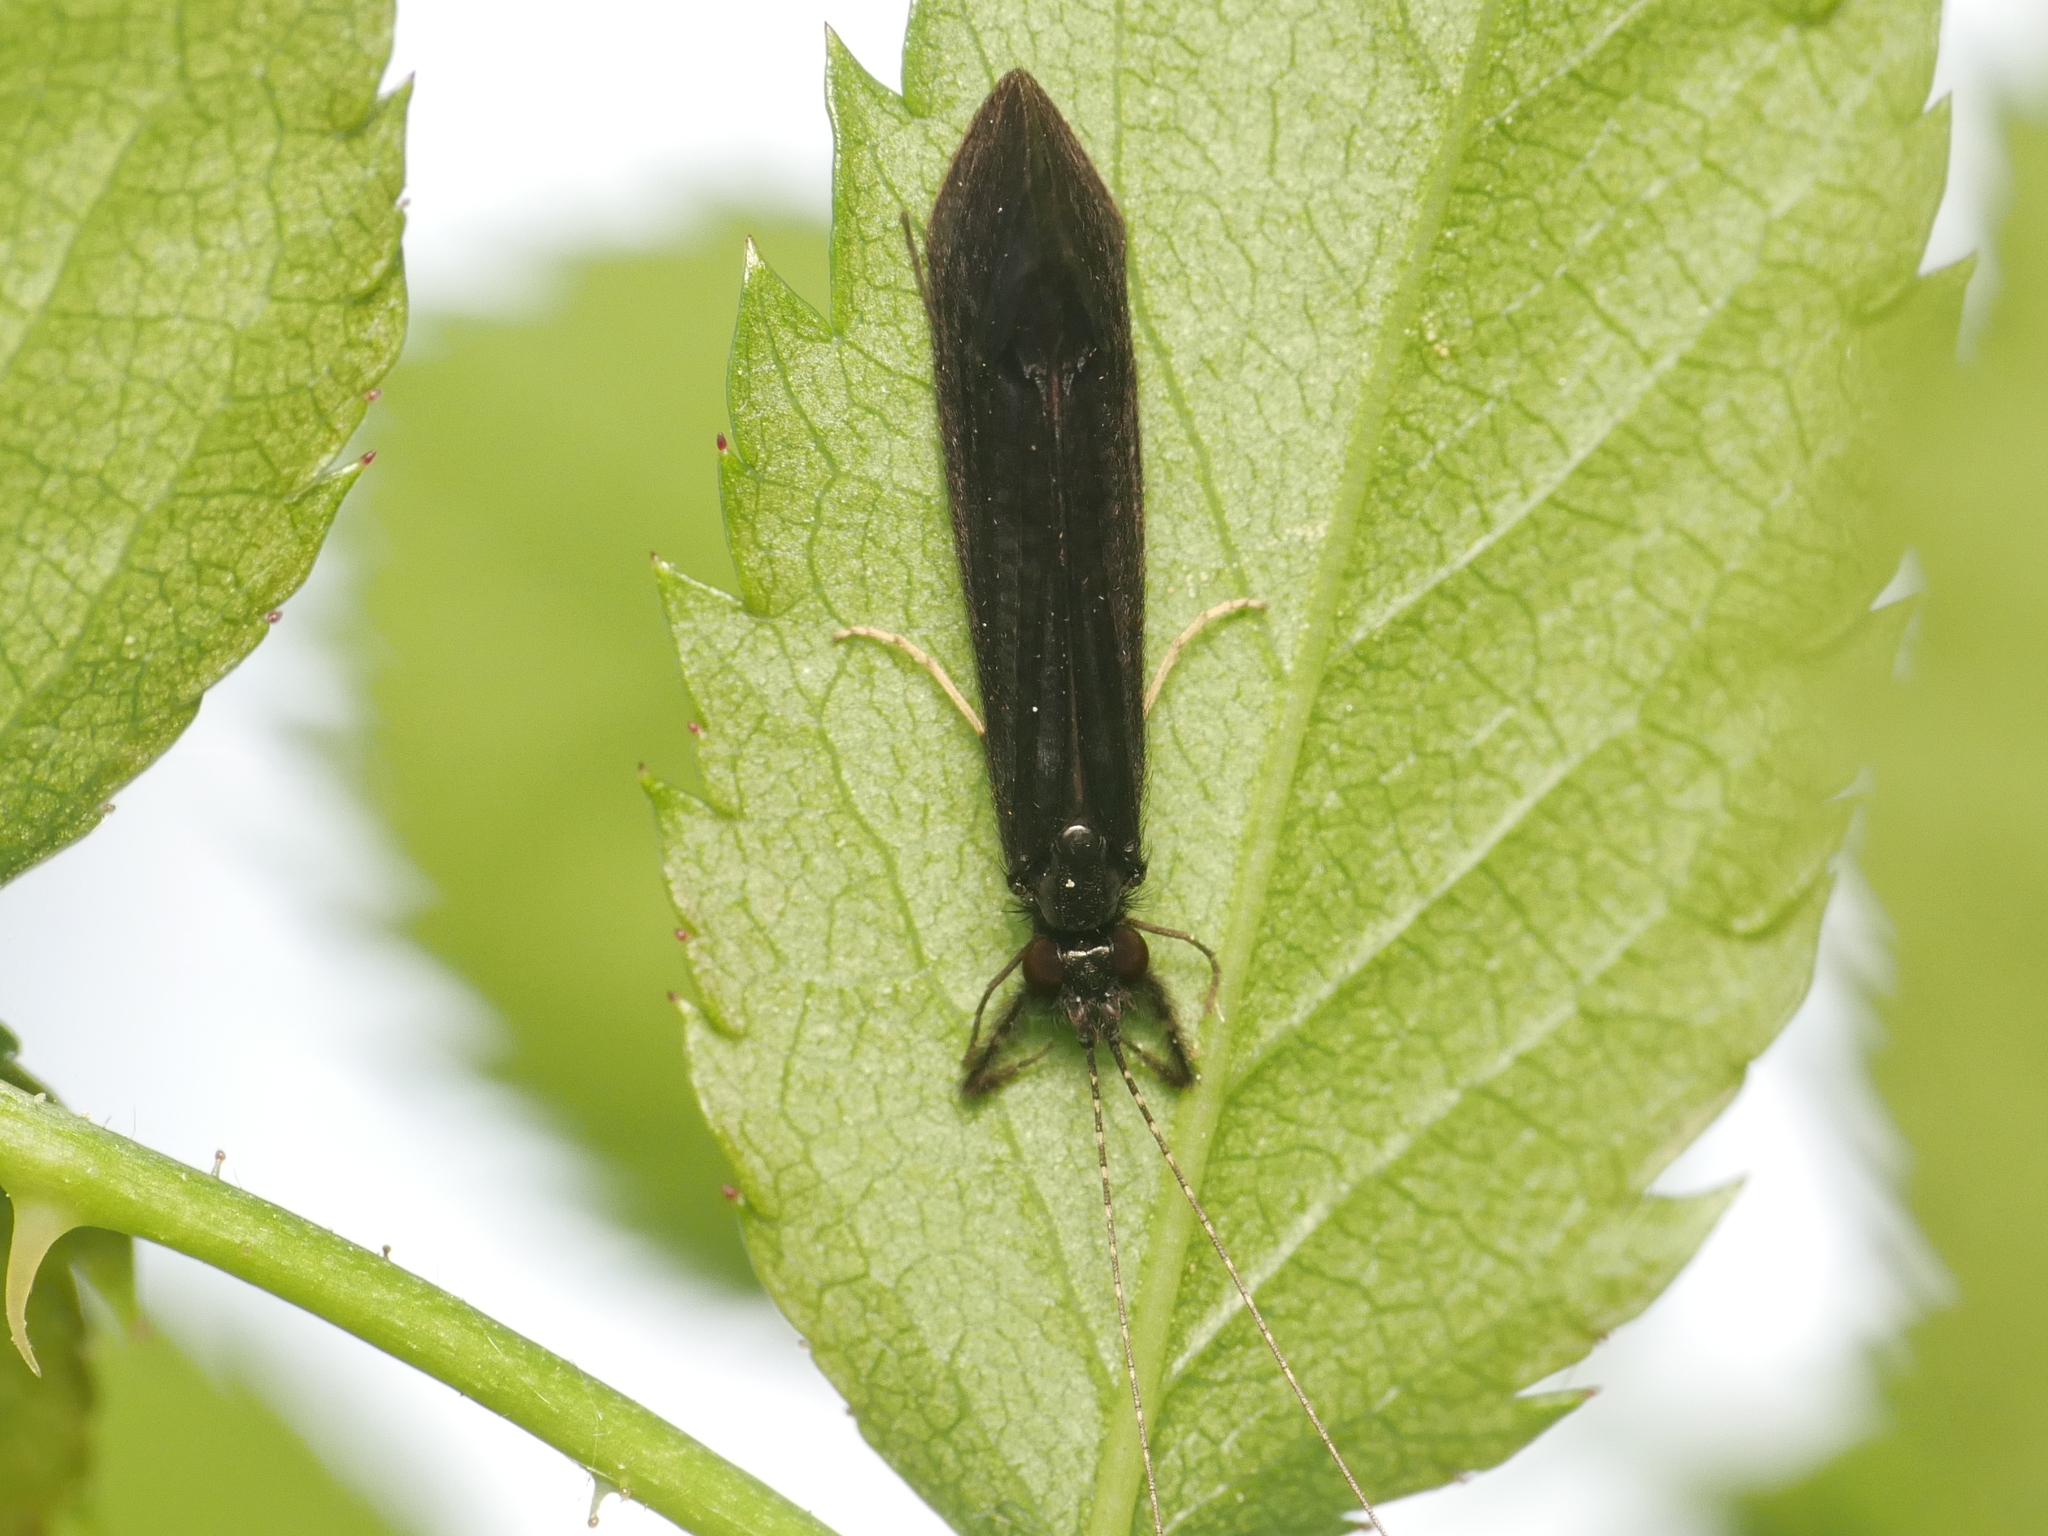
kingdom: Animalia
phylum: Arthropoda
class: Insecta
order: Trichoptera
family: Leptoceridae
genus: Mystacides
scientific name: Mystacides niger
